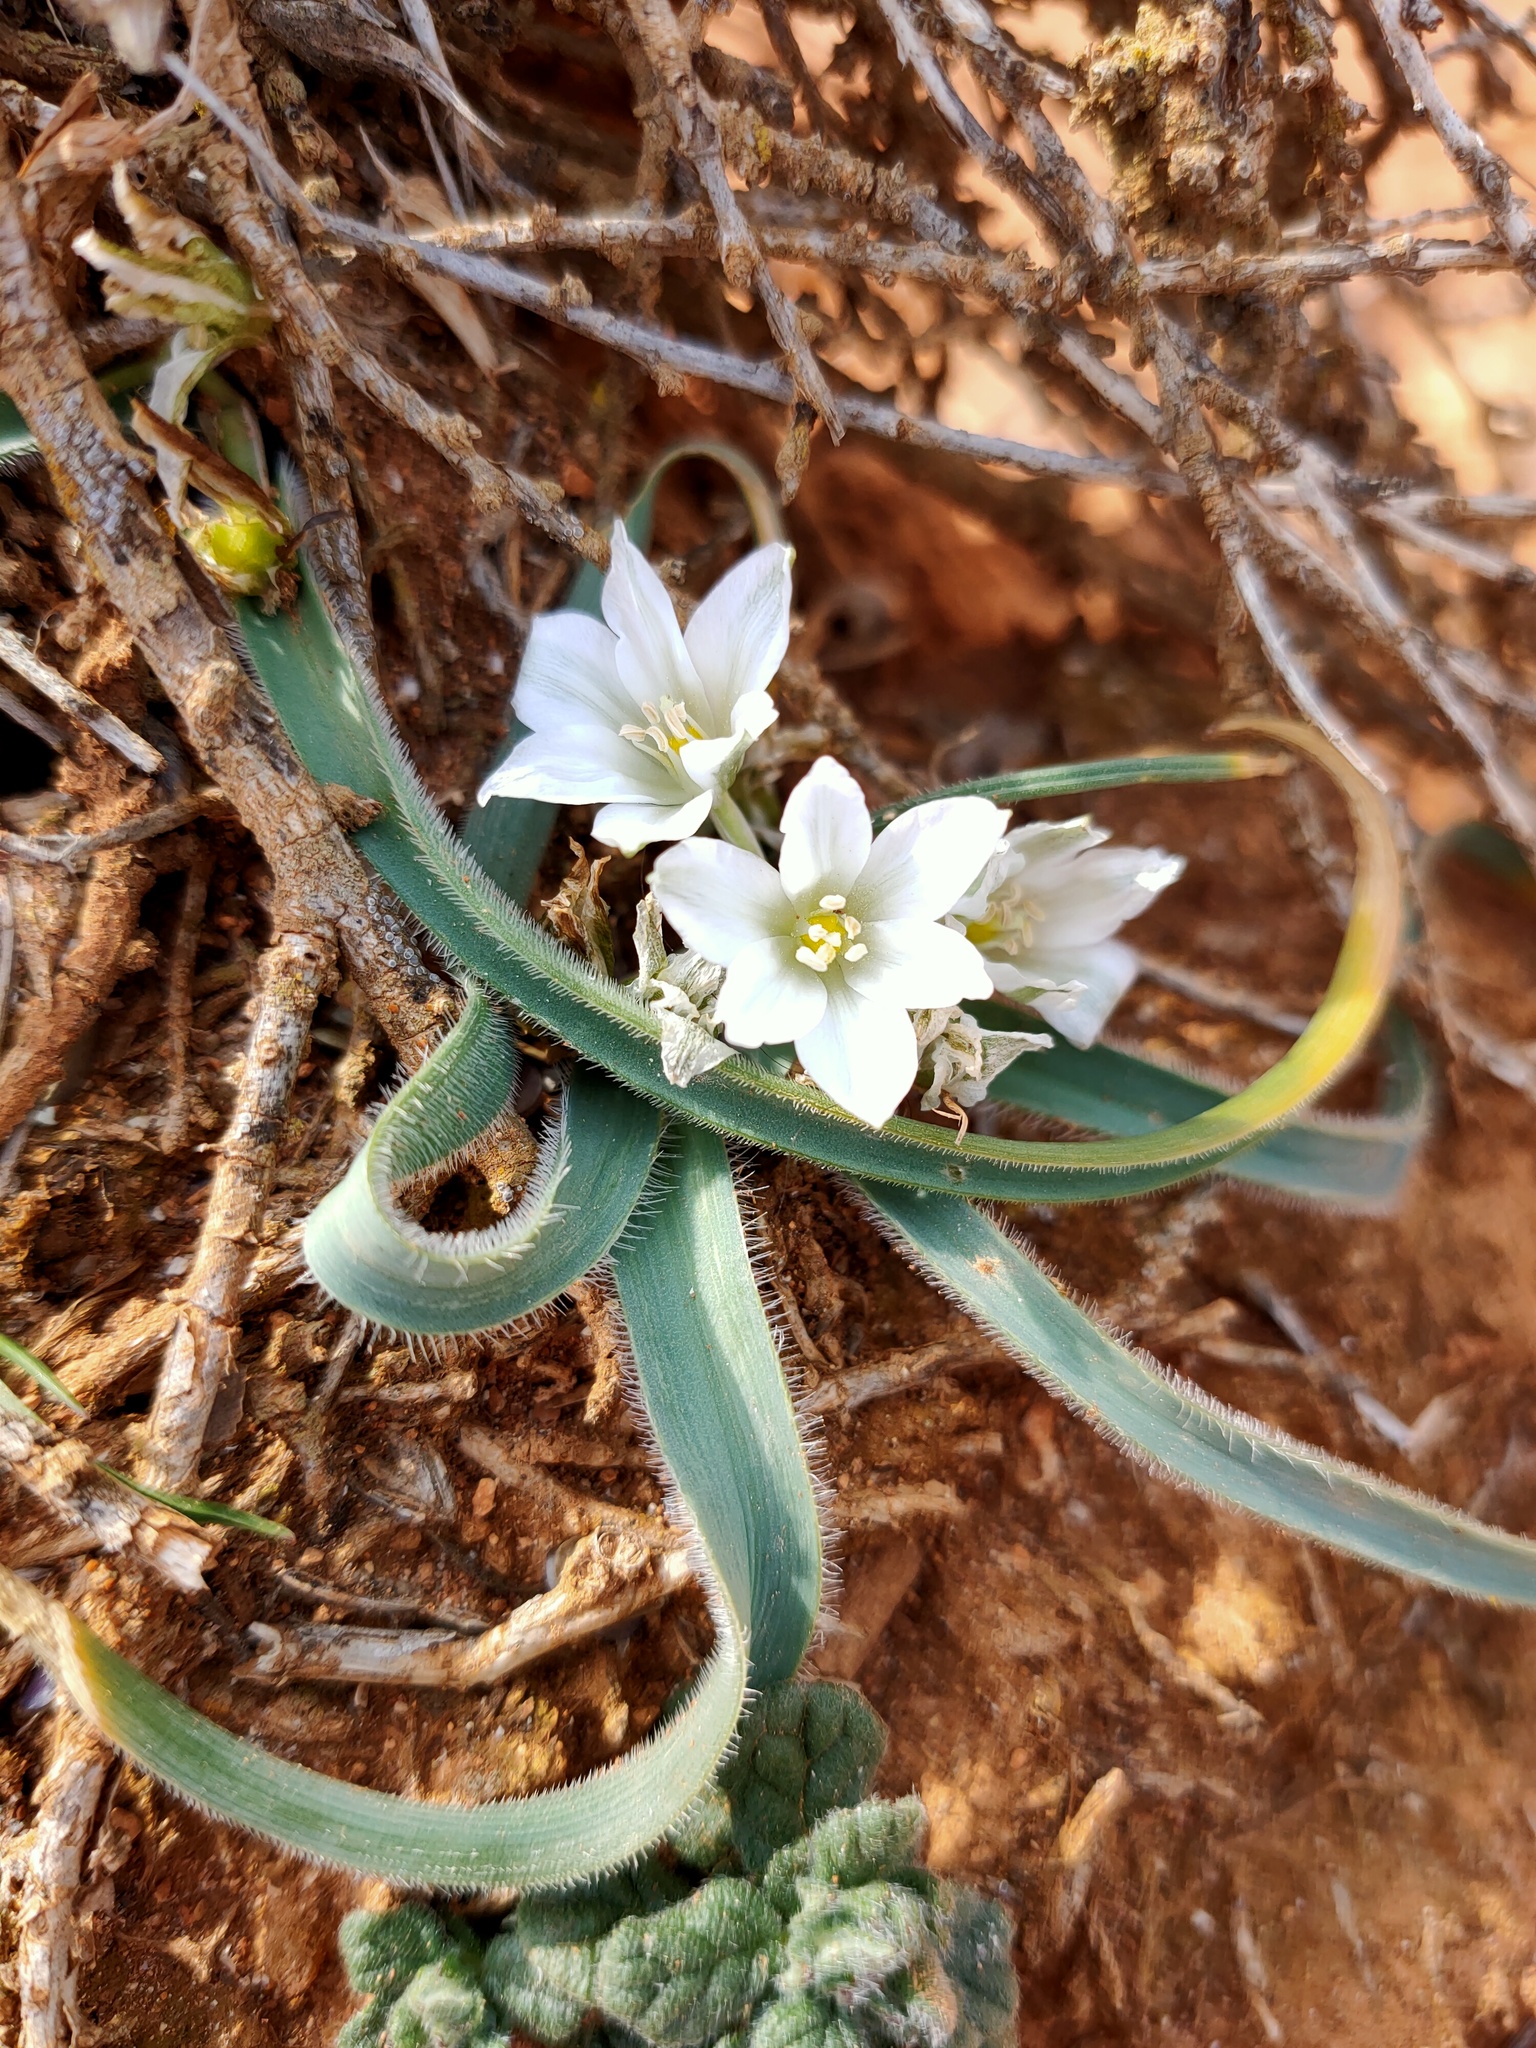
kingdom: Plantae
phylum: Tracheophyta
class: Liliopsida
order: Asparagales
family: Asparagaceae
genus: Ornithogalum
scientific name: Ornithogalum fimbriatum
